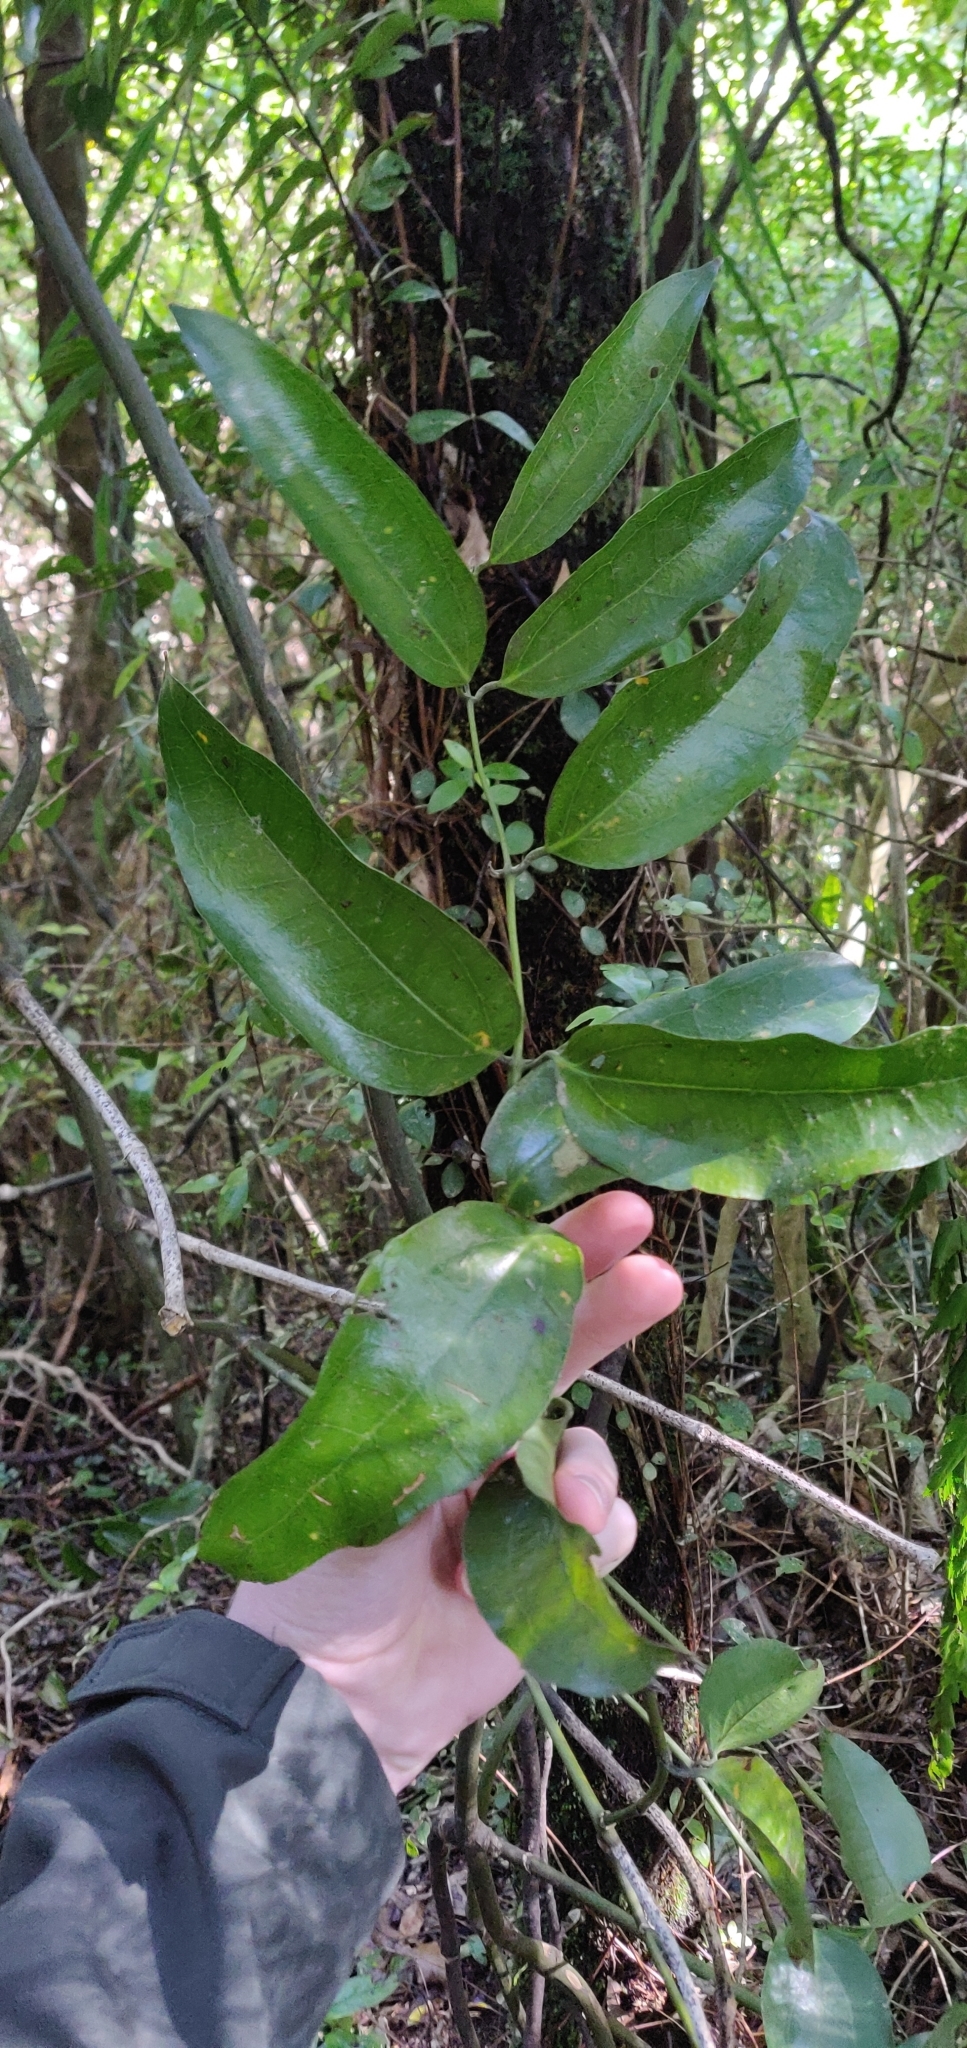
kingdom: Plantae
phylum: Tracheophyta
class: Liliopsida
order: Liliales
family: Ripogonaceae
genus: Ripogonum
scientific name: Ripogonum scandens
